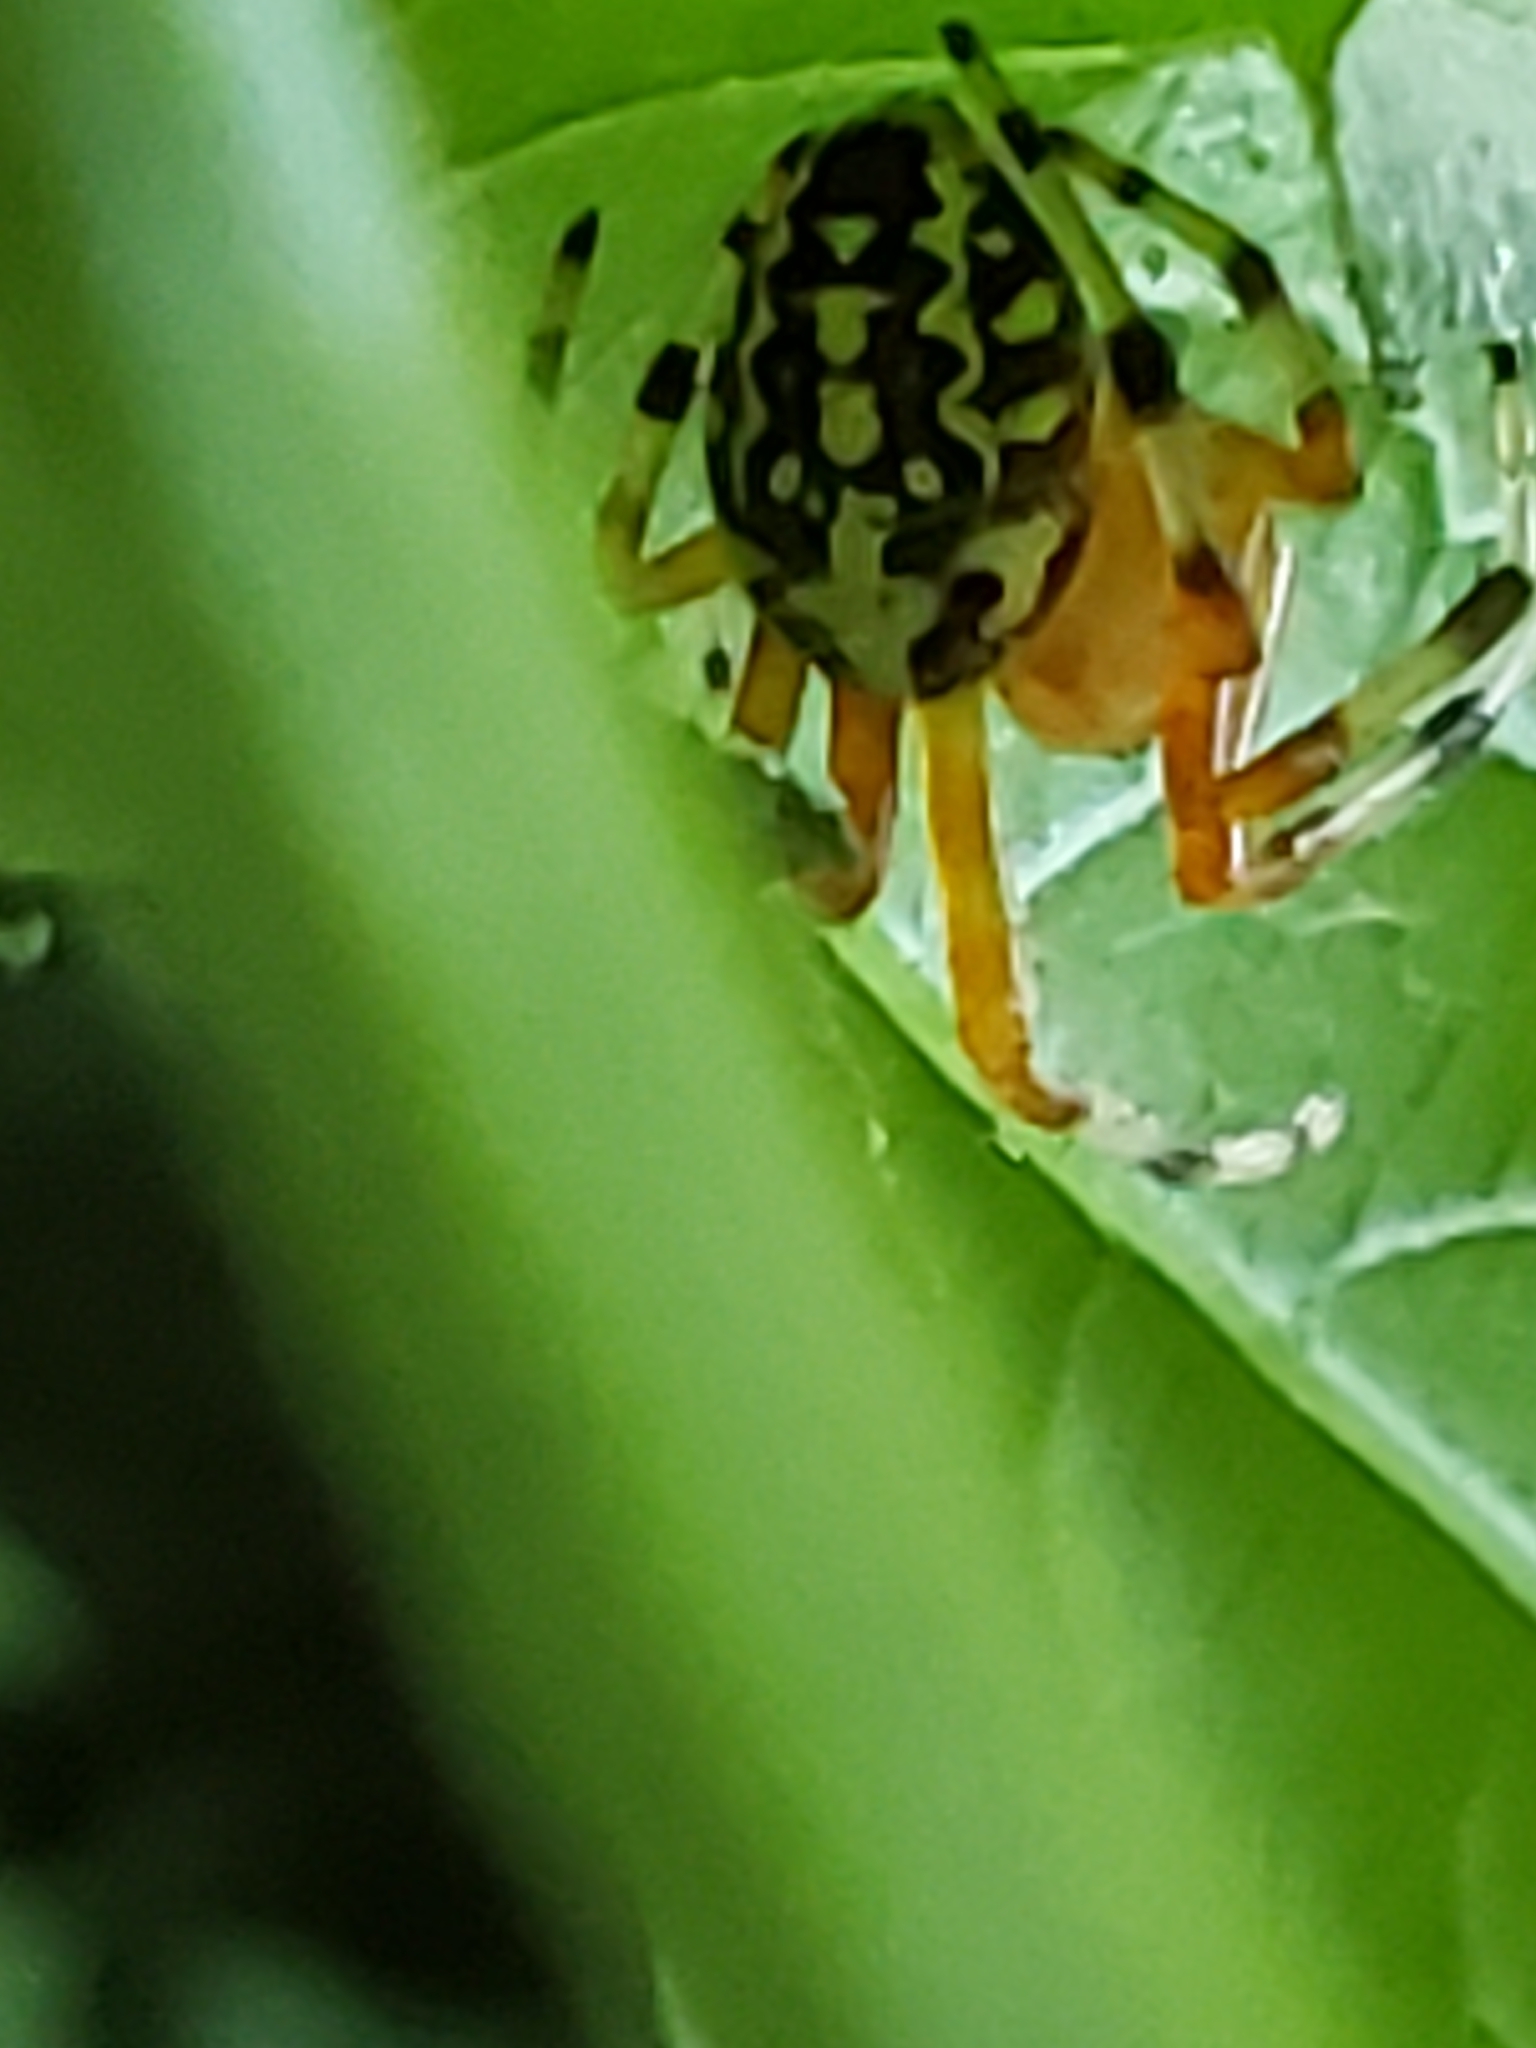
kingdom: Animalia
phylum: Arthropoda
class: Arachnida
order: Araneae
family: Araneidae
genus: Araneus
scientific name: Araneus marmoreus
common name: Marbled orbweaver
